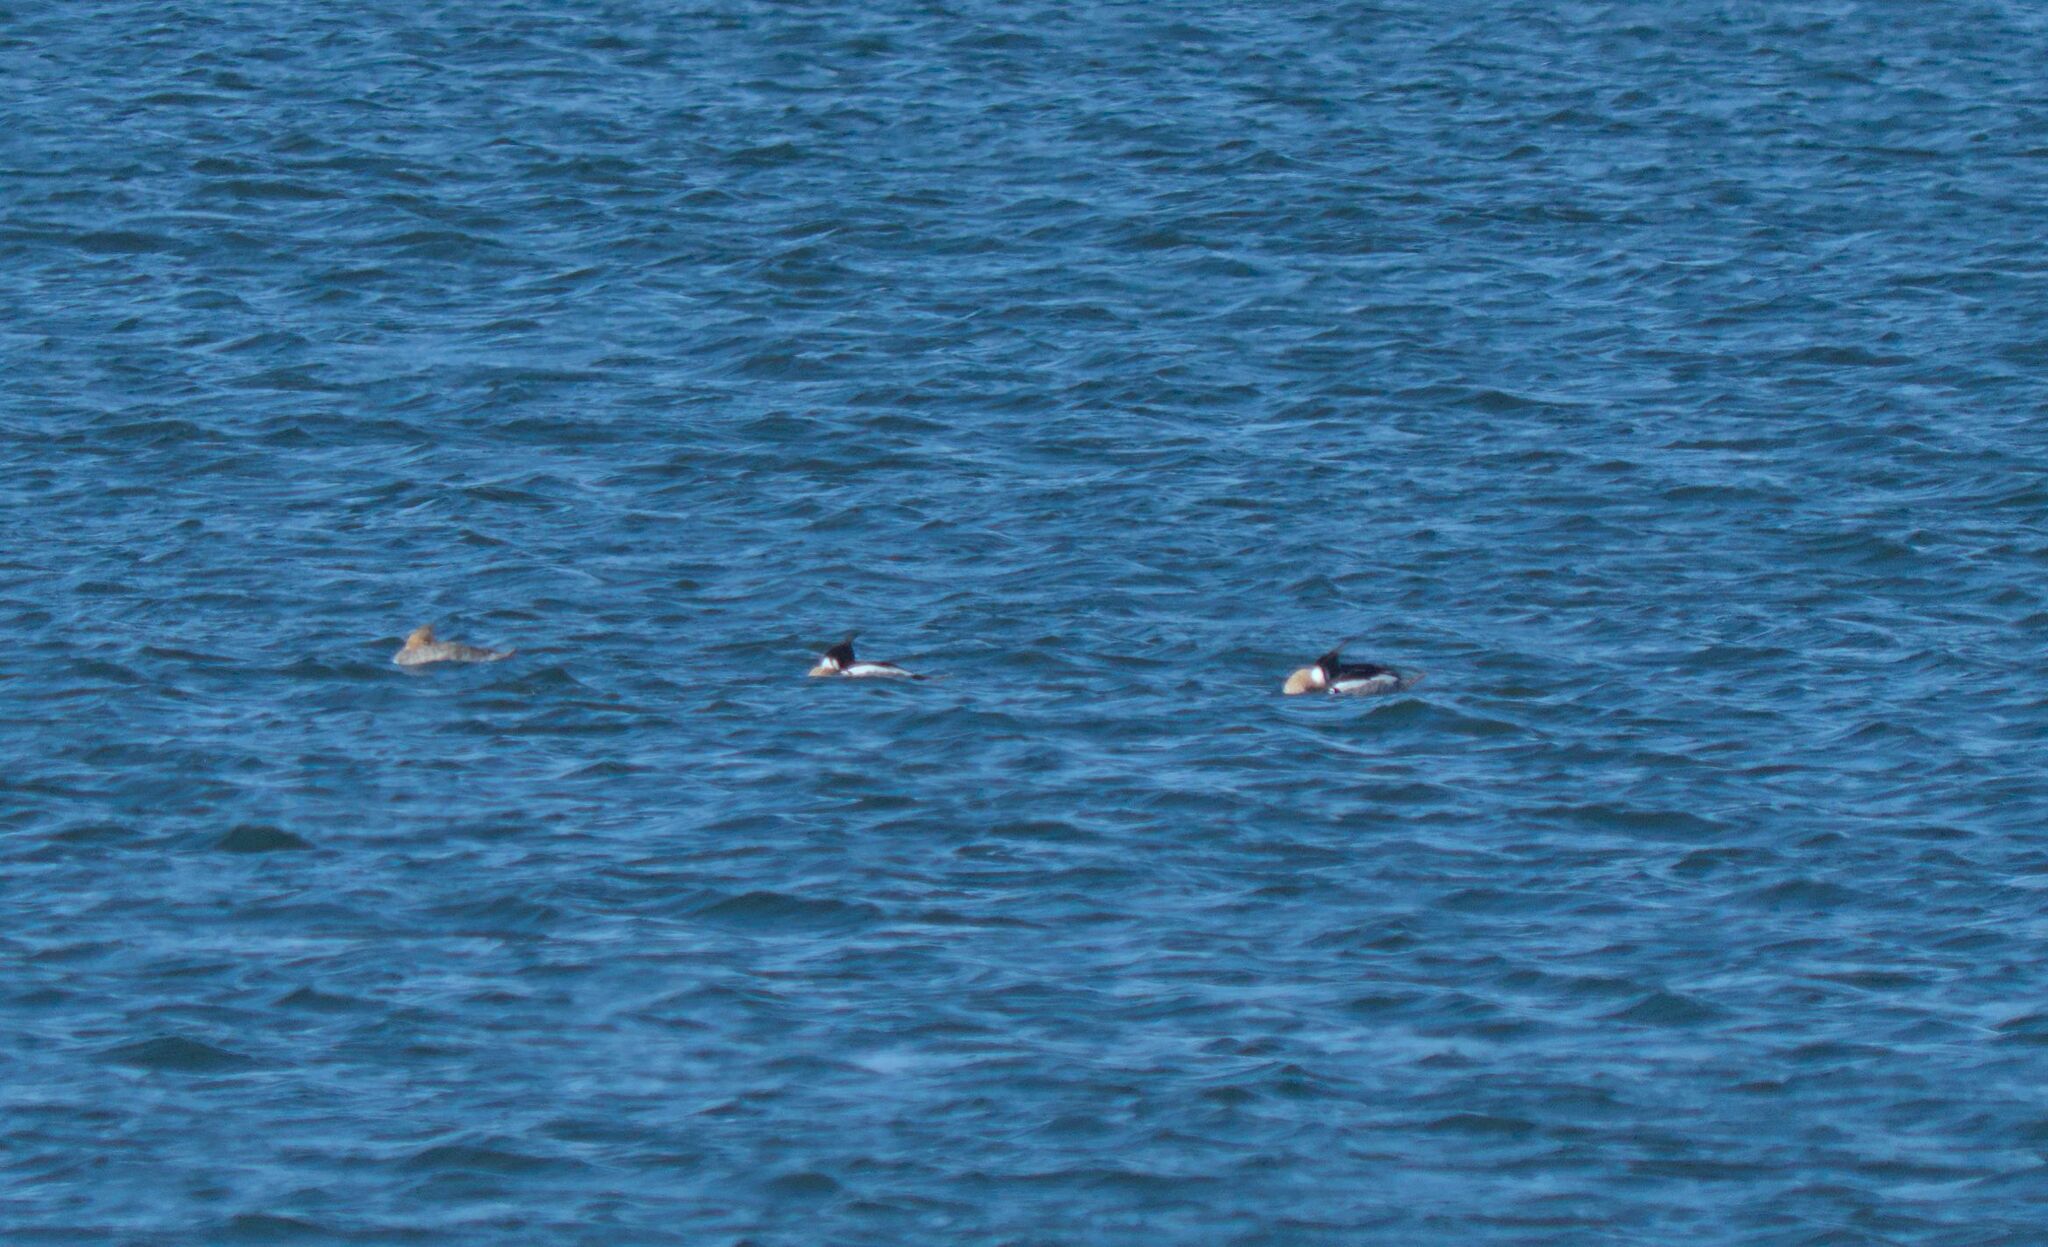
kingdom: Animalia
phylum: Chordata
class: Aves
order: Anseriformes
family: Anatidae
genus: Mergus
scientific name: Mergus serrator
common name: Red-breasted merganser
